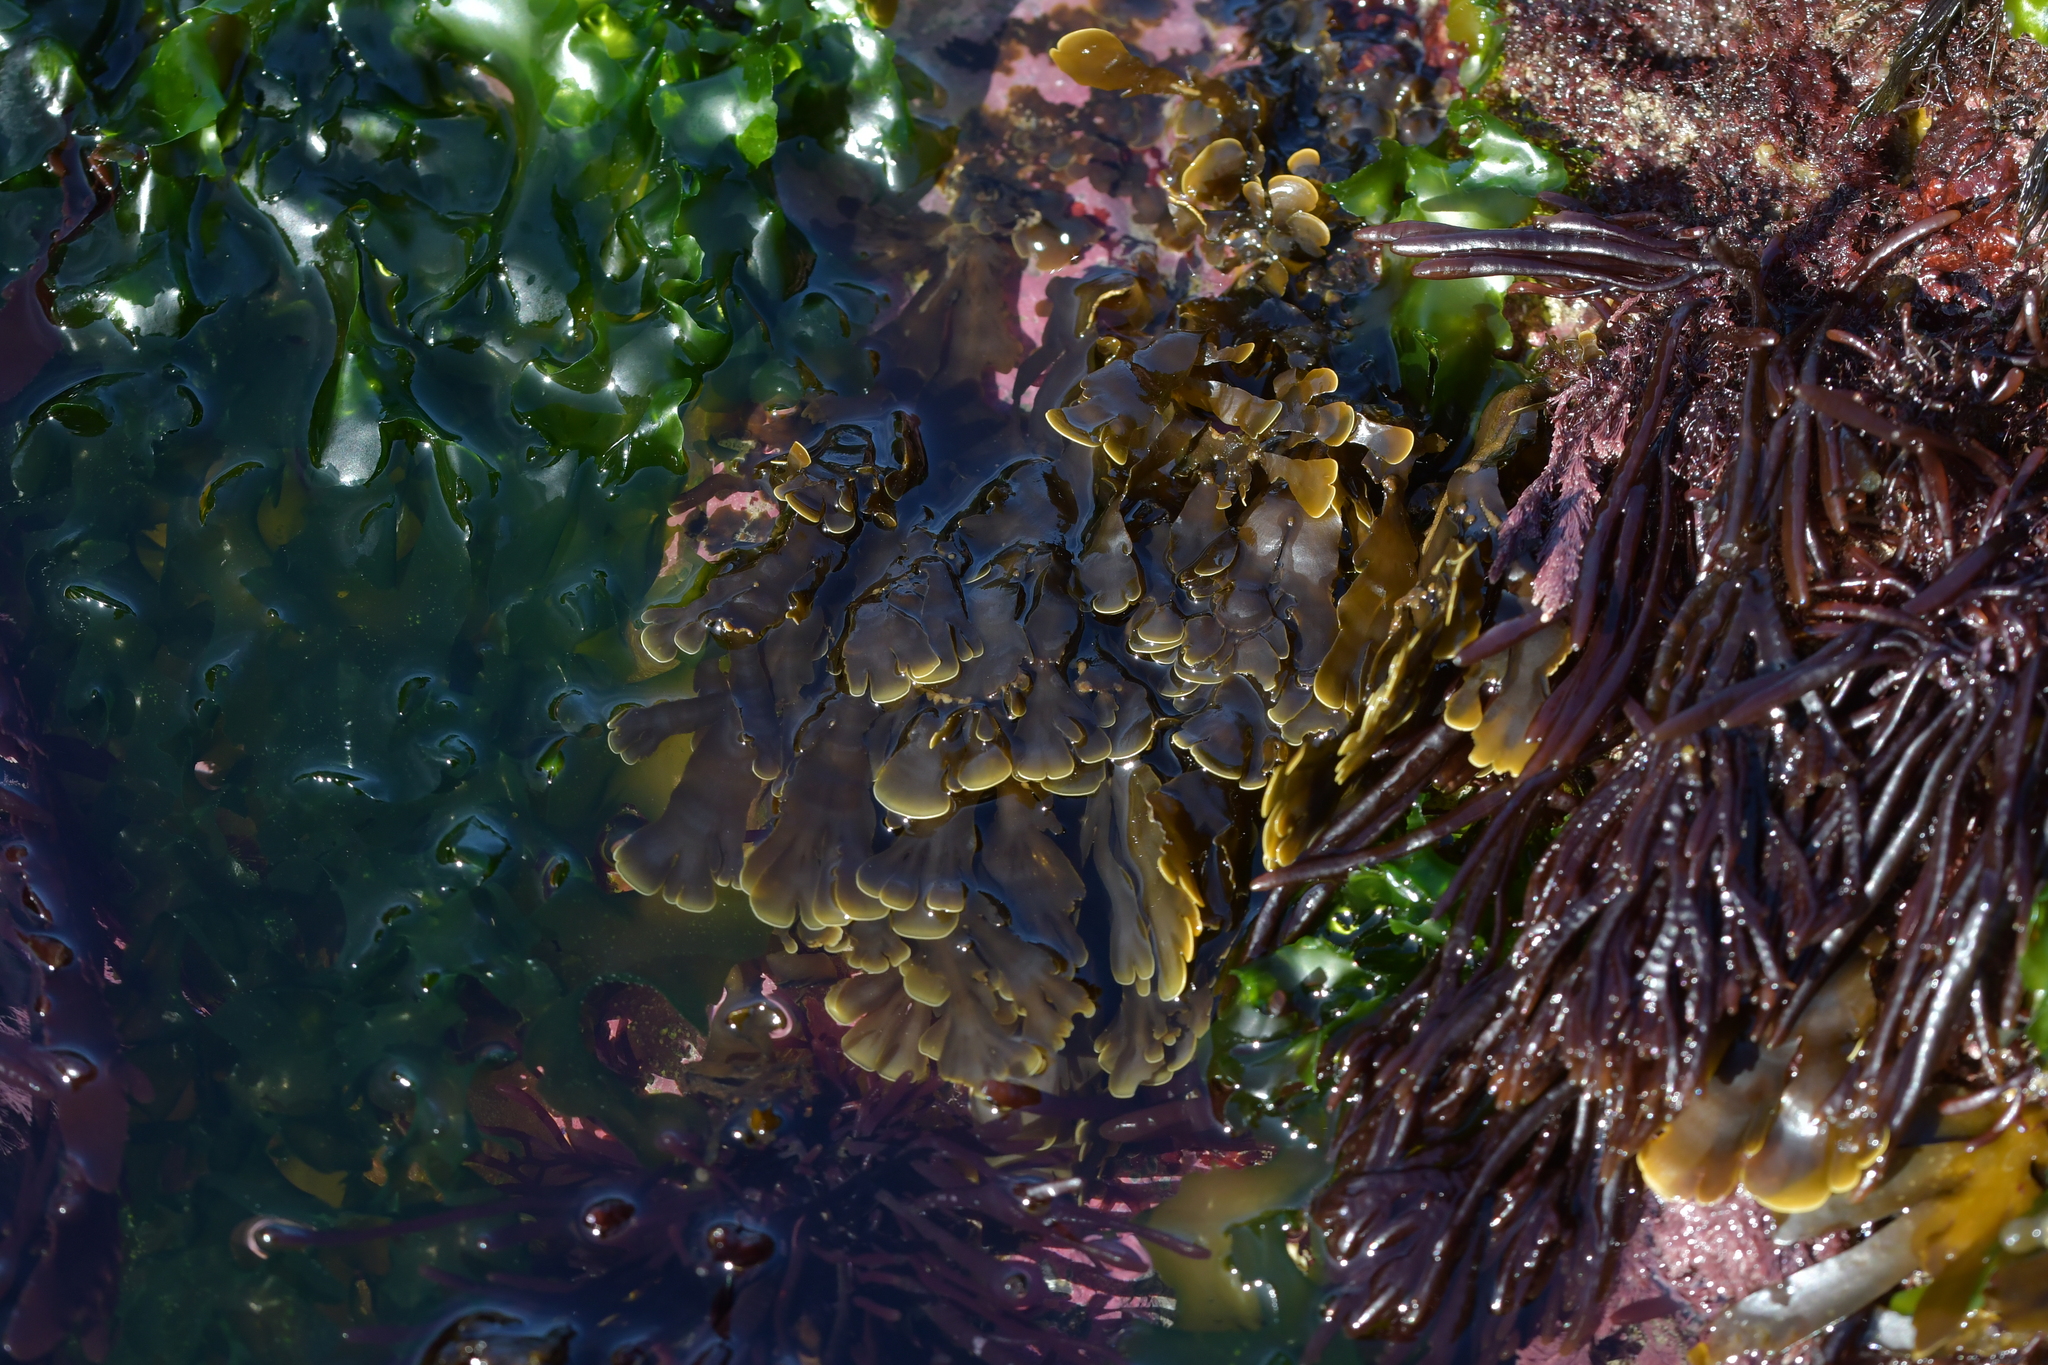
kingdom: Chromista
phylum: Ochrophyta
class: Phaeophyceae
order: Dictyotales
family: Dictyotaceae
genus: Zonaria
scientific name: Zonaria turneriana
